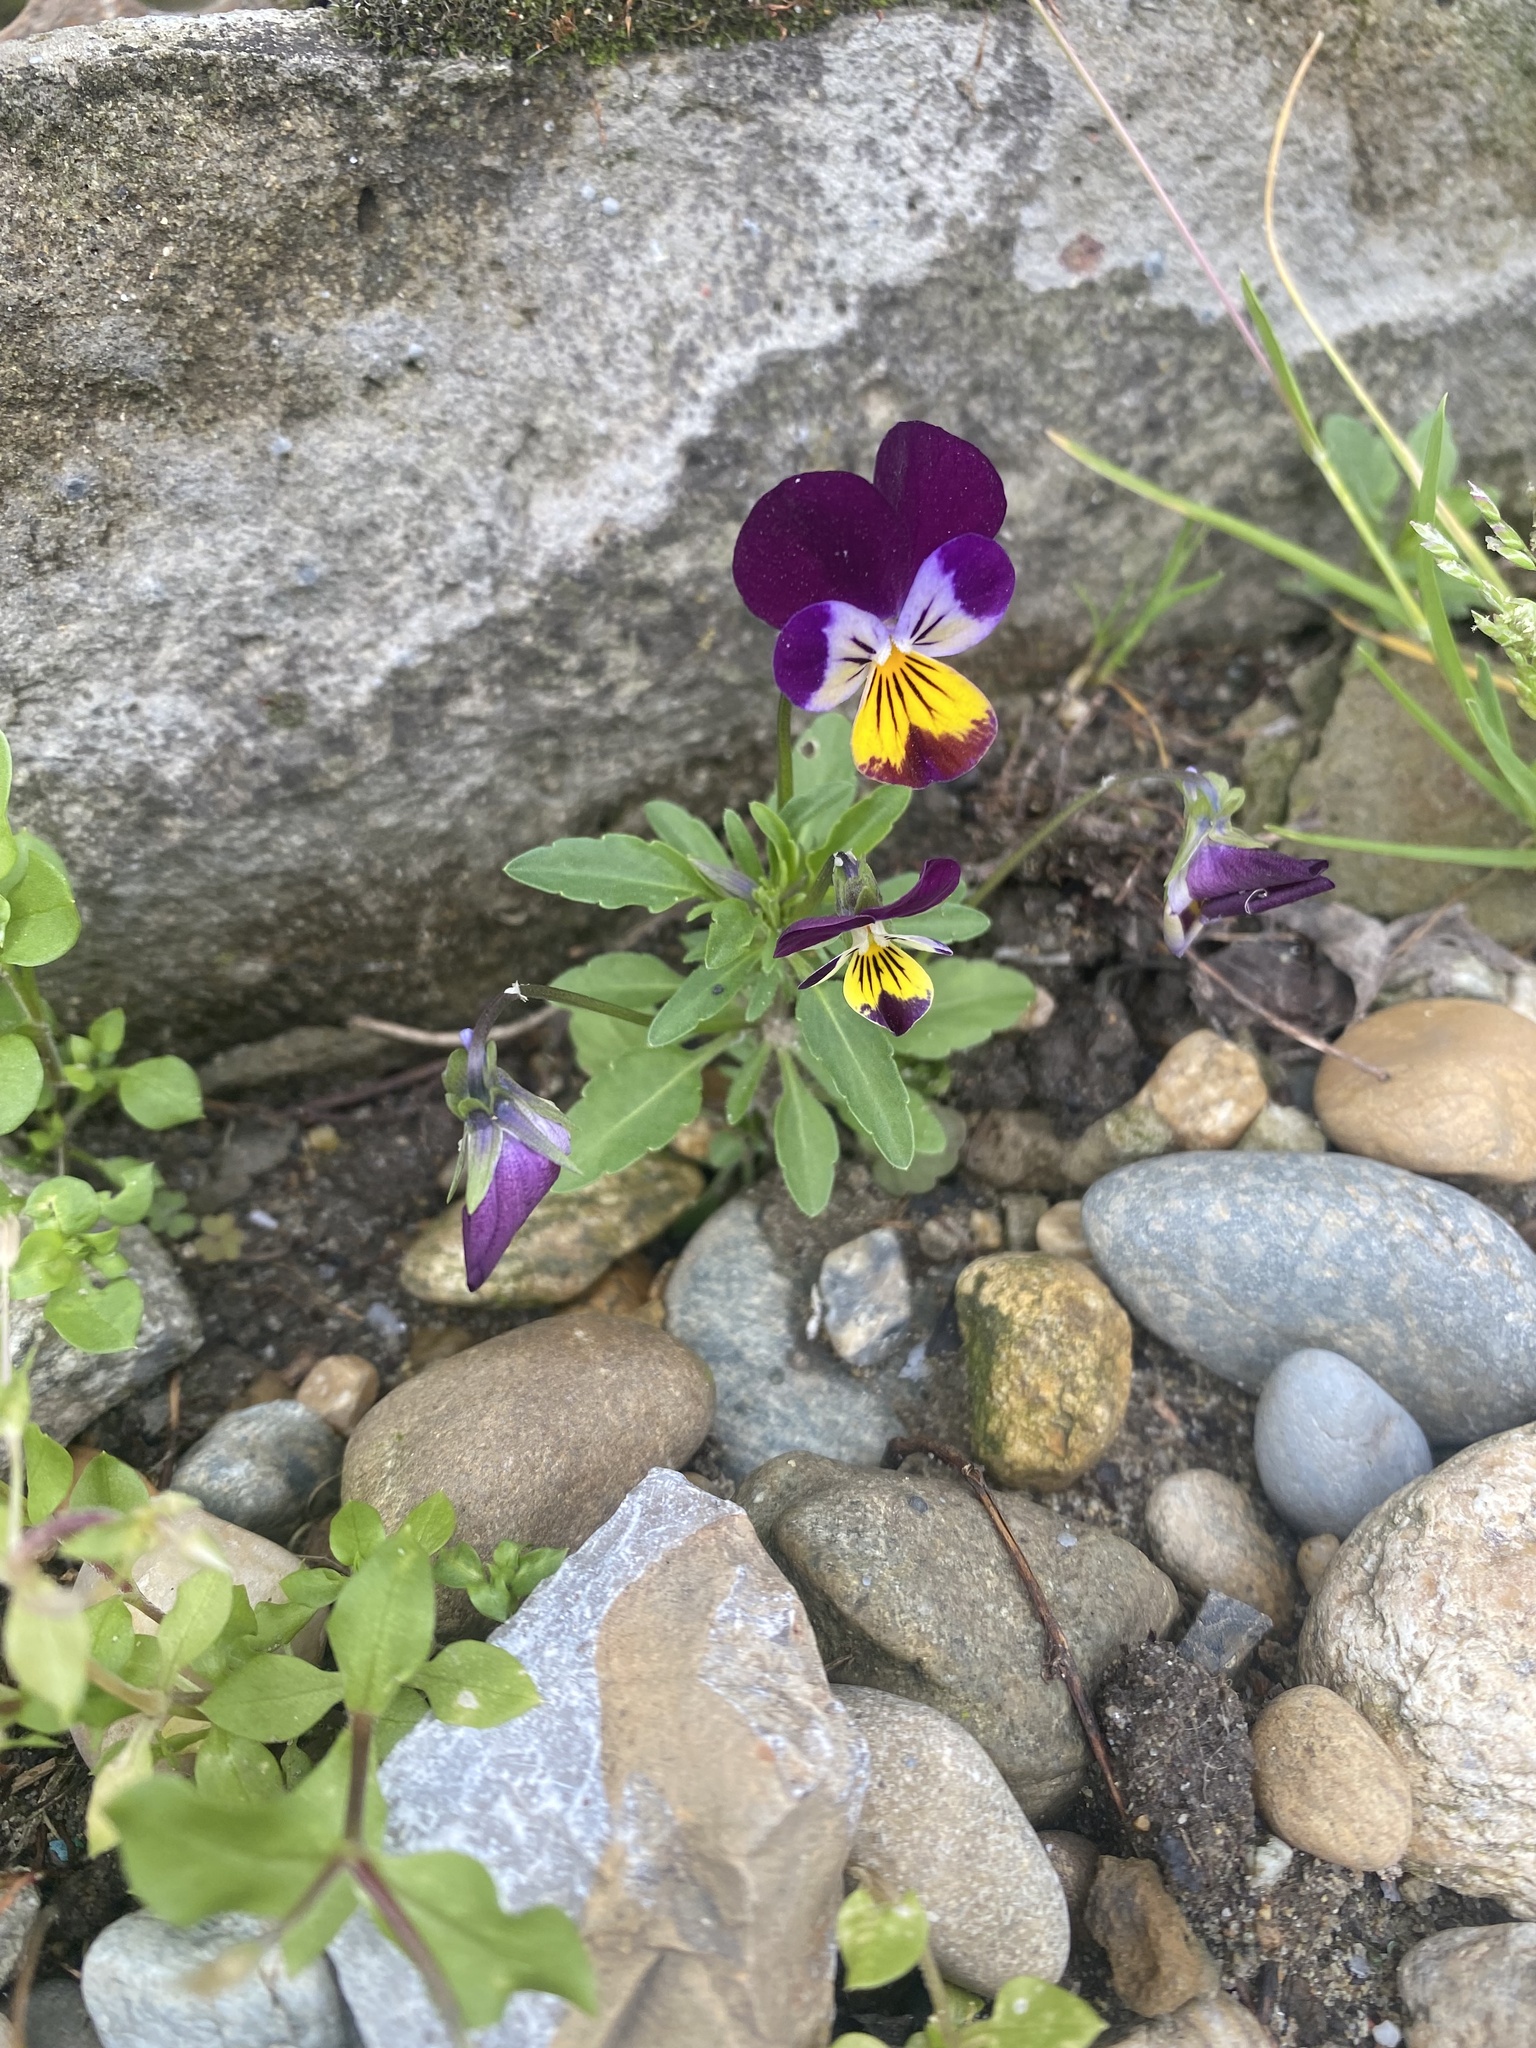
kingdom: Plantae
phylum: Tracheophyta
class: Magnoliopsida
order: Malpighiales
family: Violaceae
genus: Viola
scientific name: Viola wittrockiana
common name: Garden pansy
